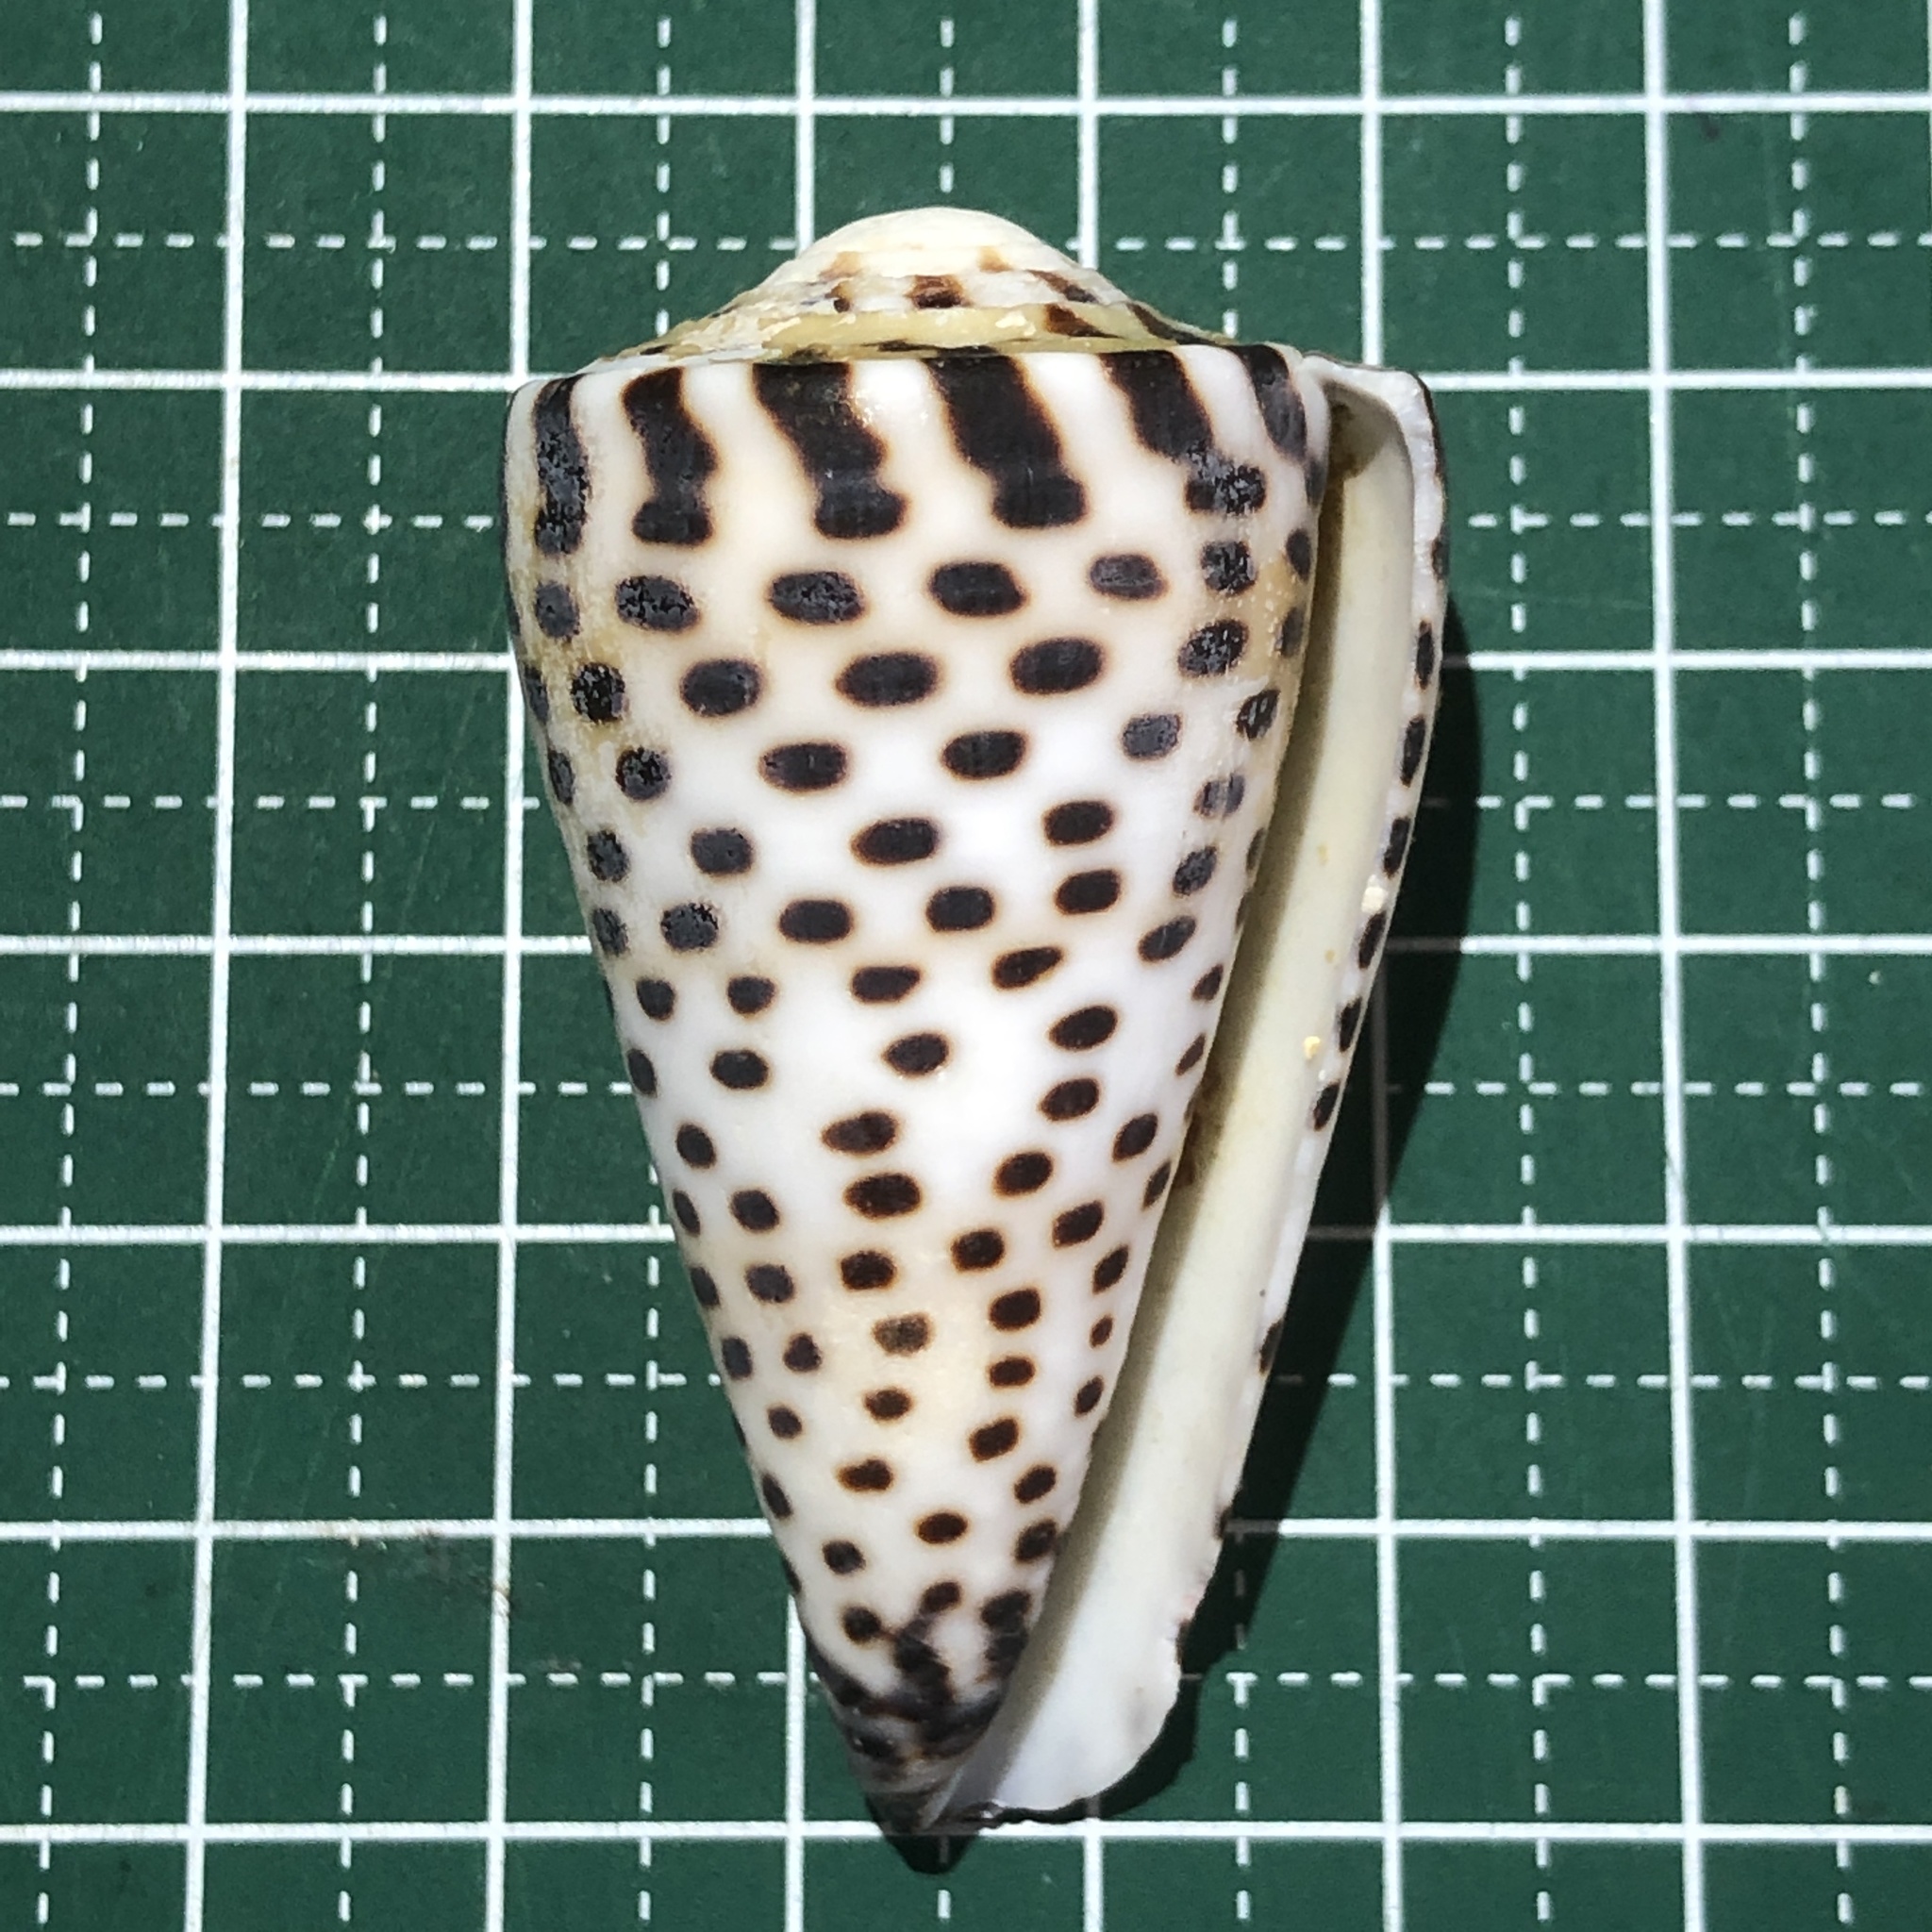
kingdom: Animalia
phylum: Mollusca
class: Gastropoda
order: Neogastropoda
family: Conidae
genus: Conus
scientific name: Conus litteratus
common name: Lettered cone
